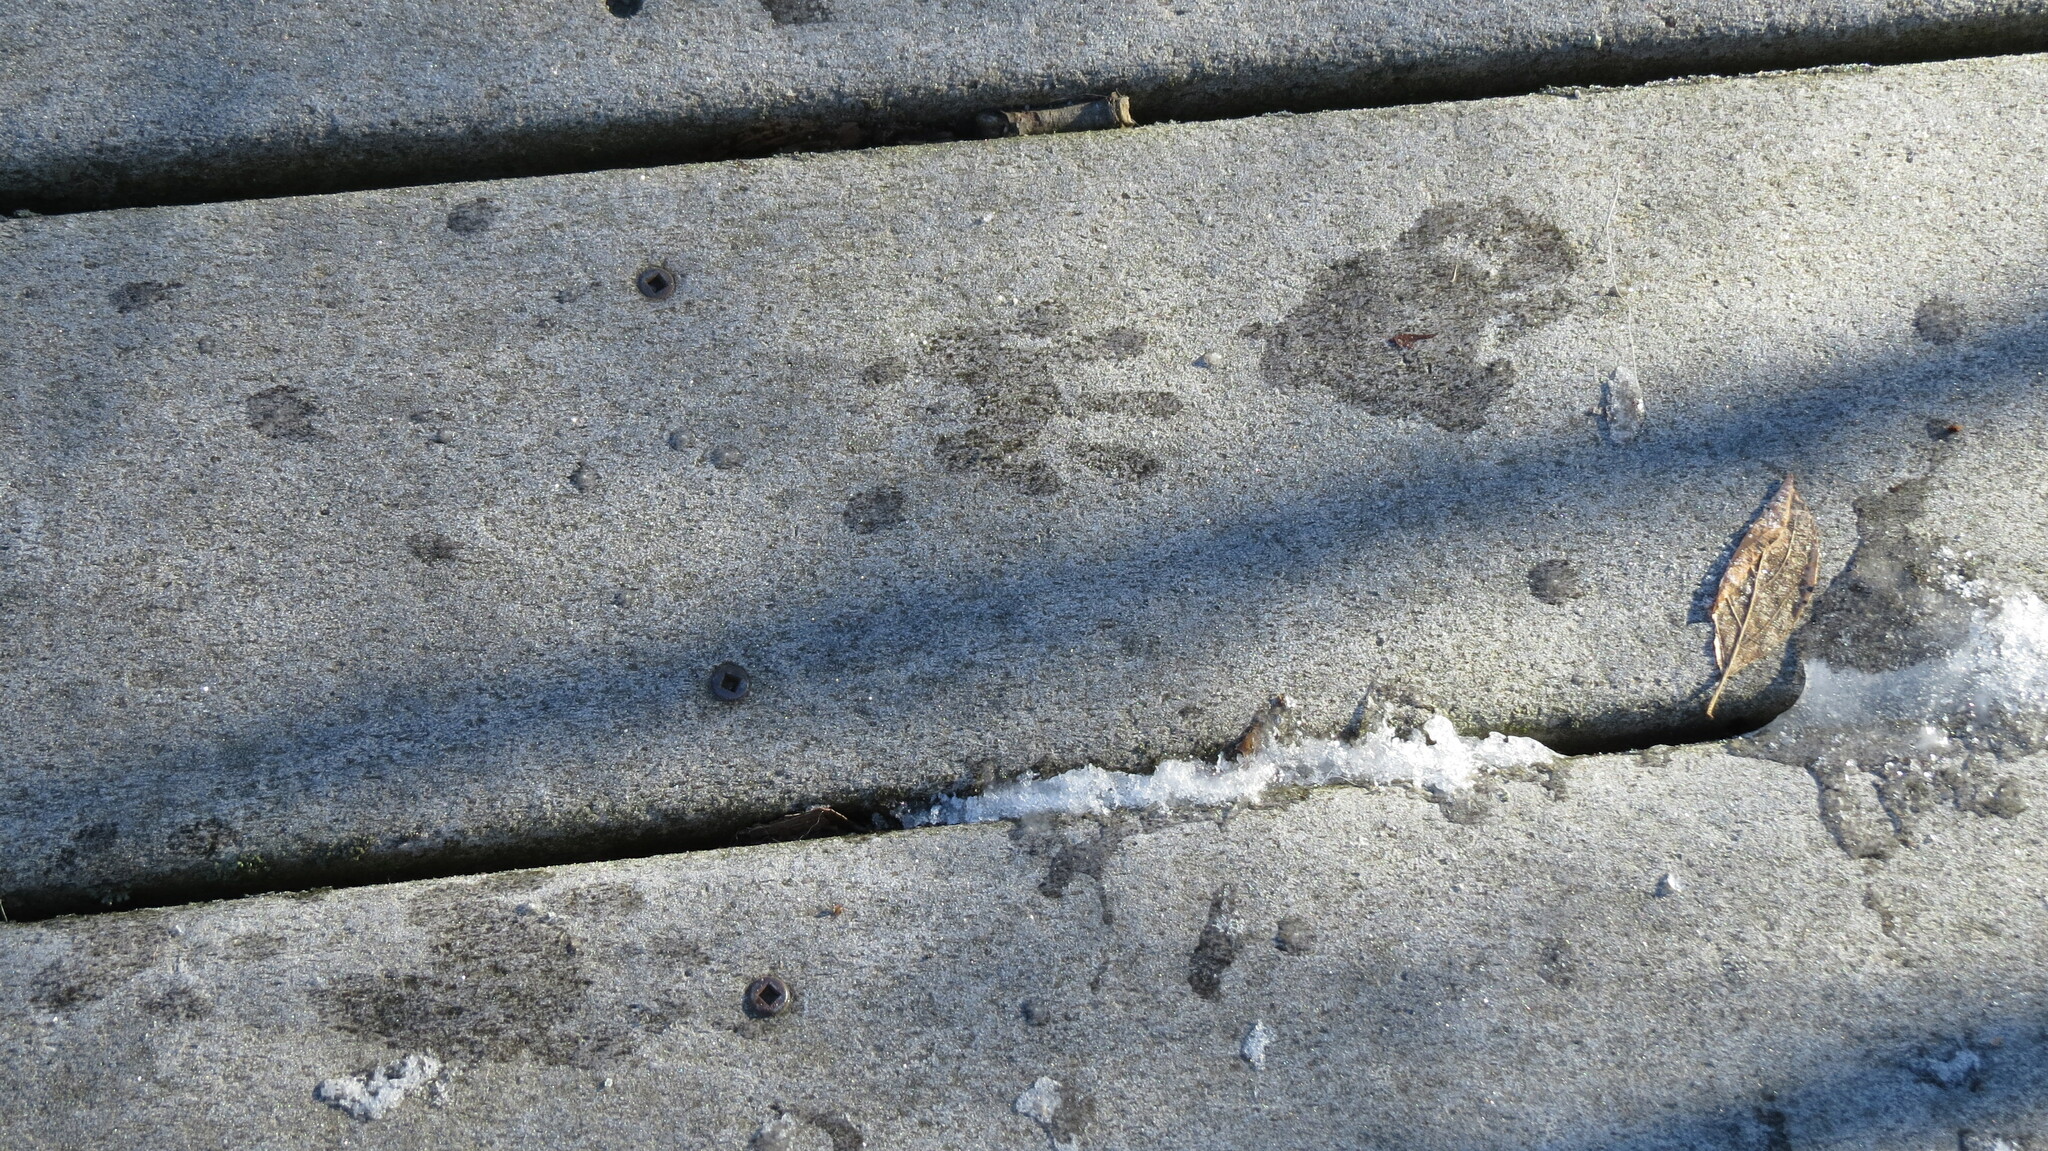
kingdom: Animalia
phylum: Chordata
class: Mammalia
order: Carnivora
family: Procyonidae
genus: Procyon
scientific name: Procyon lotor
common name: Raccoon
